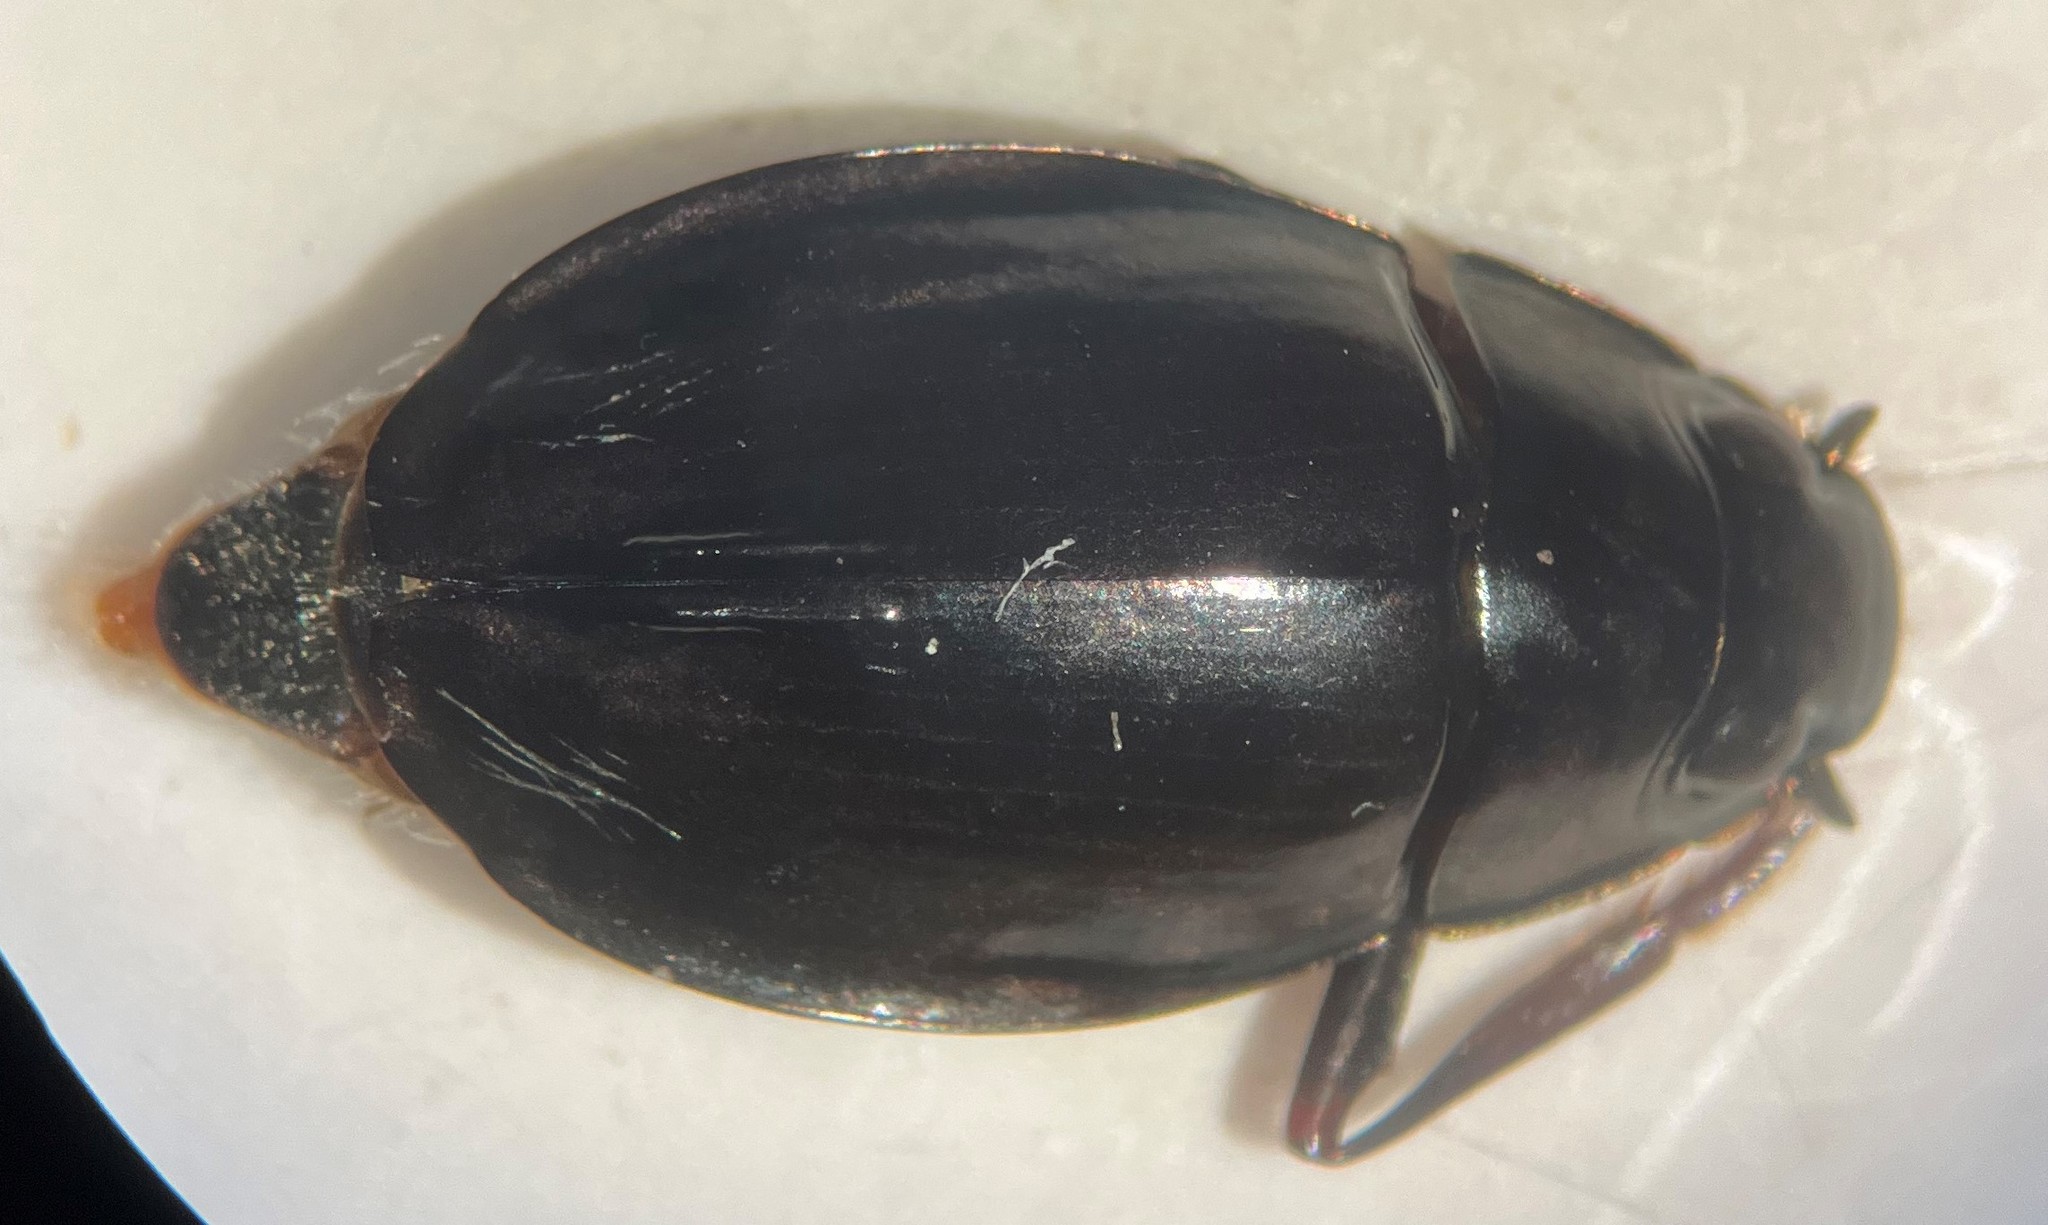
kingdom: Animalia
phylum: Arthropoda
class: Insecta
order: Coleoptera
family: Gyrinidae
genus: Dineutus
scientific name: Dineutus serrulatus
